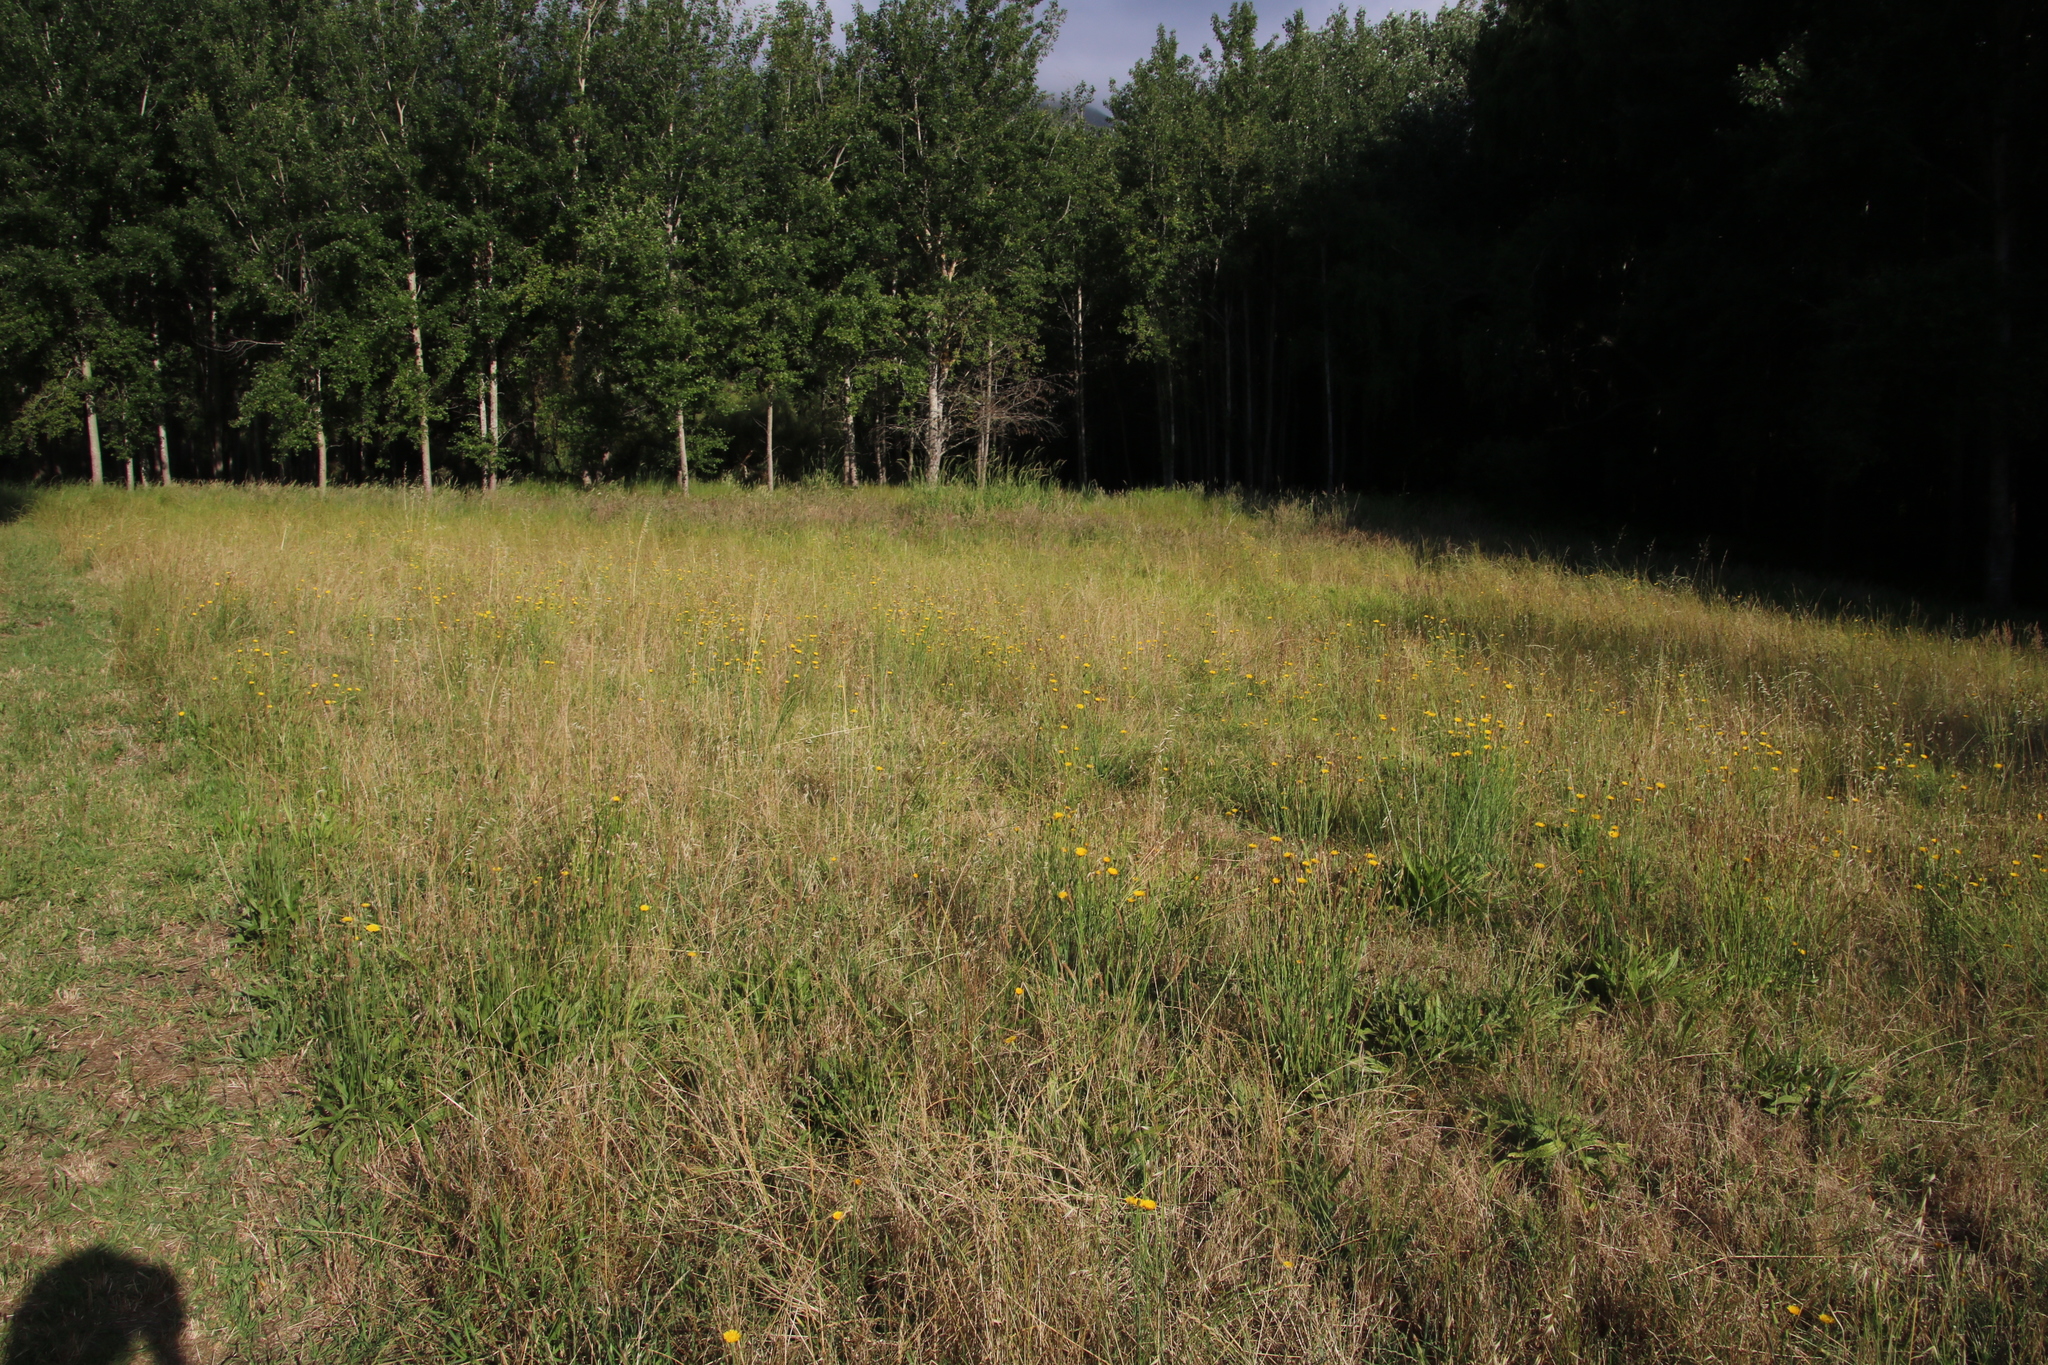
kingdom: Plantae
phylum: Tracheophyta
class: Magnoliopsida
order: Asterales
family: Asteraceae
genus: Hypochaeris
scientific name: Hypochaeris radicata
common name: Flatweed
